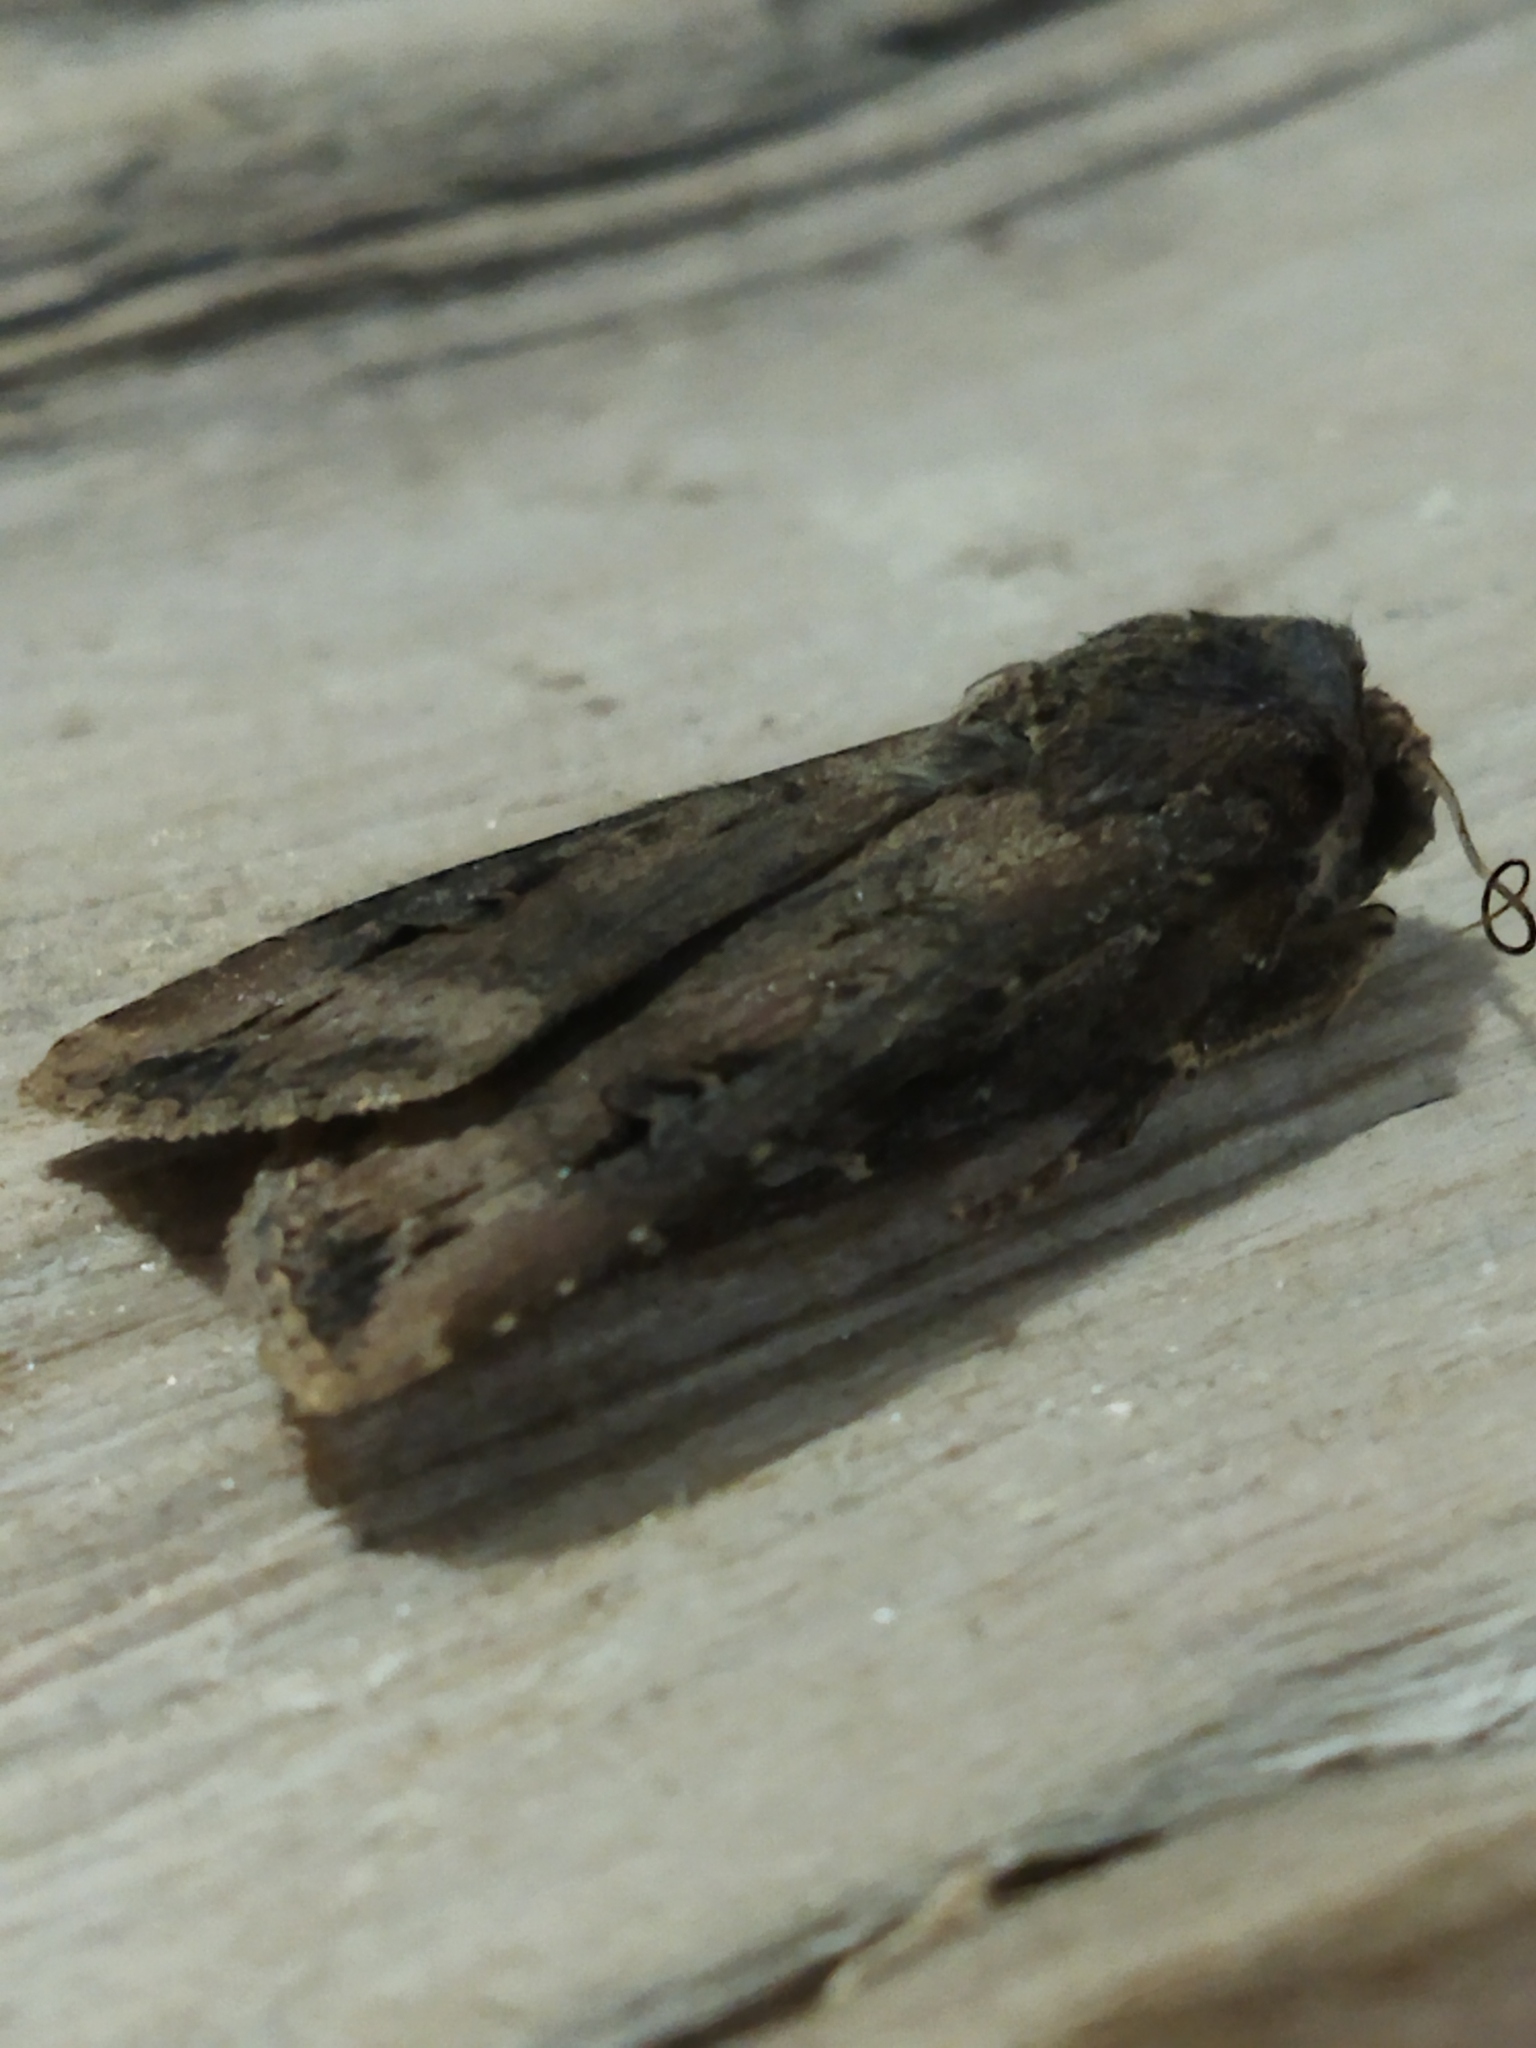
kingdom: Animalia
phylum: Arthropoda
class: Insecta
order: Lepidoptera
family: Noctuidae
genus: Agrotis
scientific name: Agrotis ipsilon
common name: Dark sword-grass
